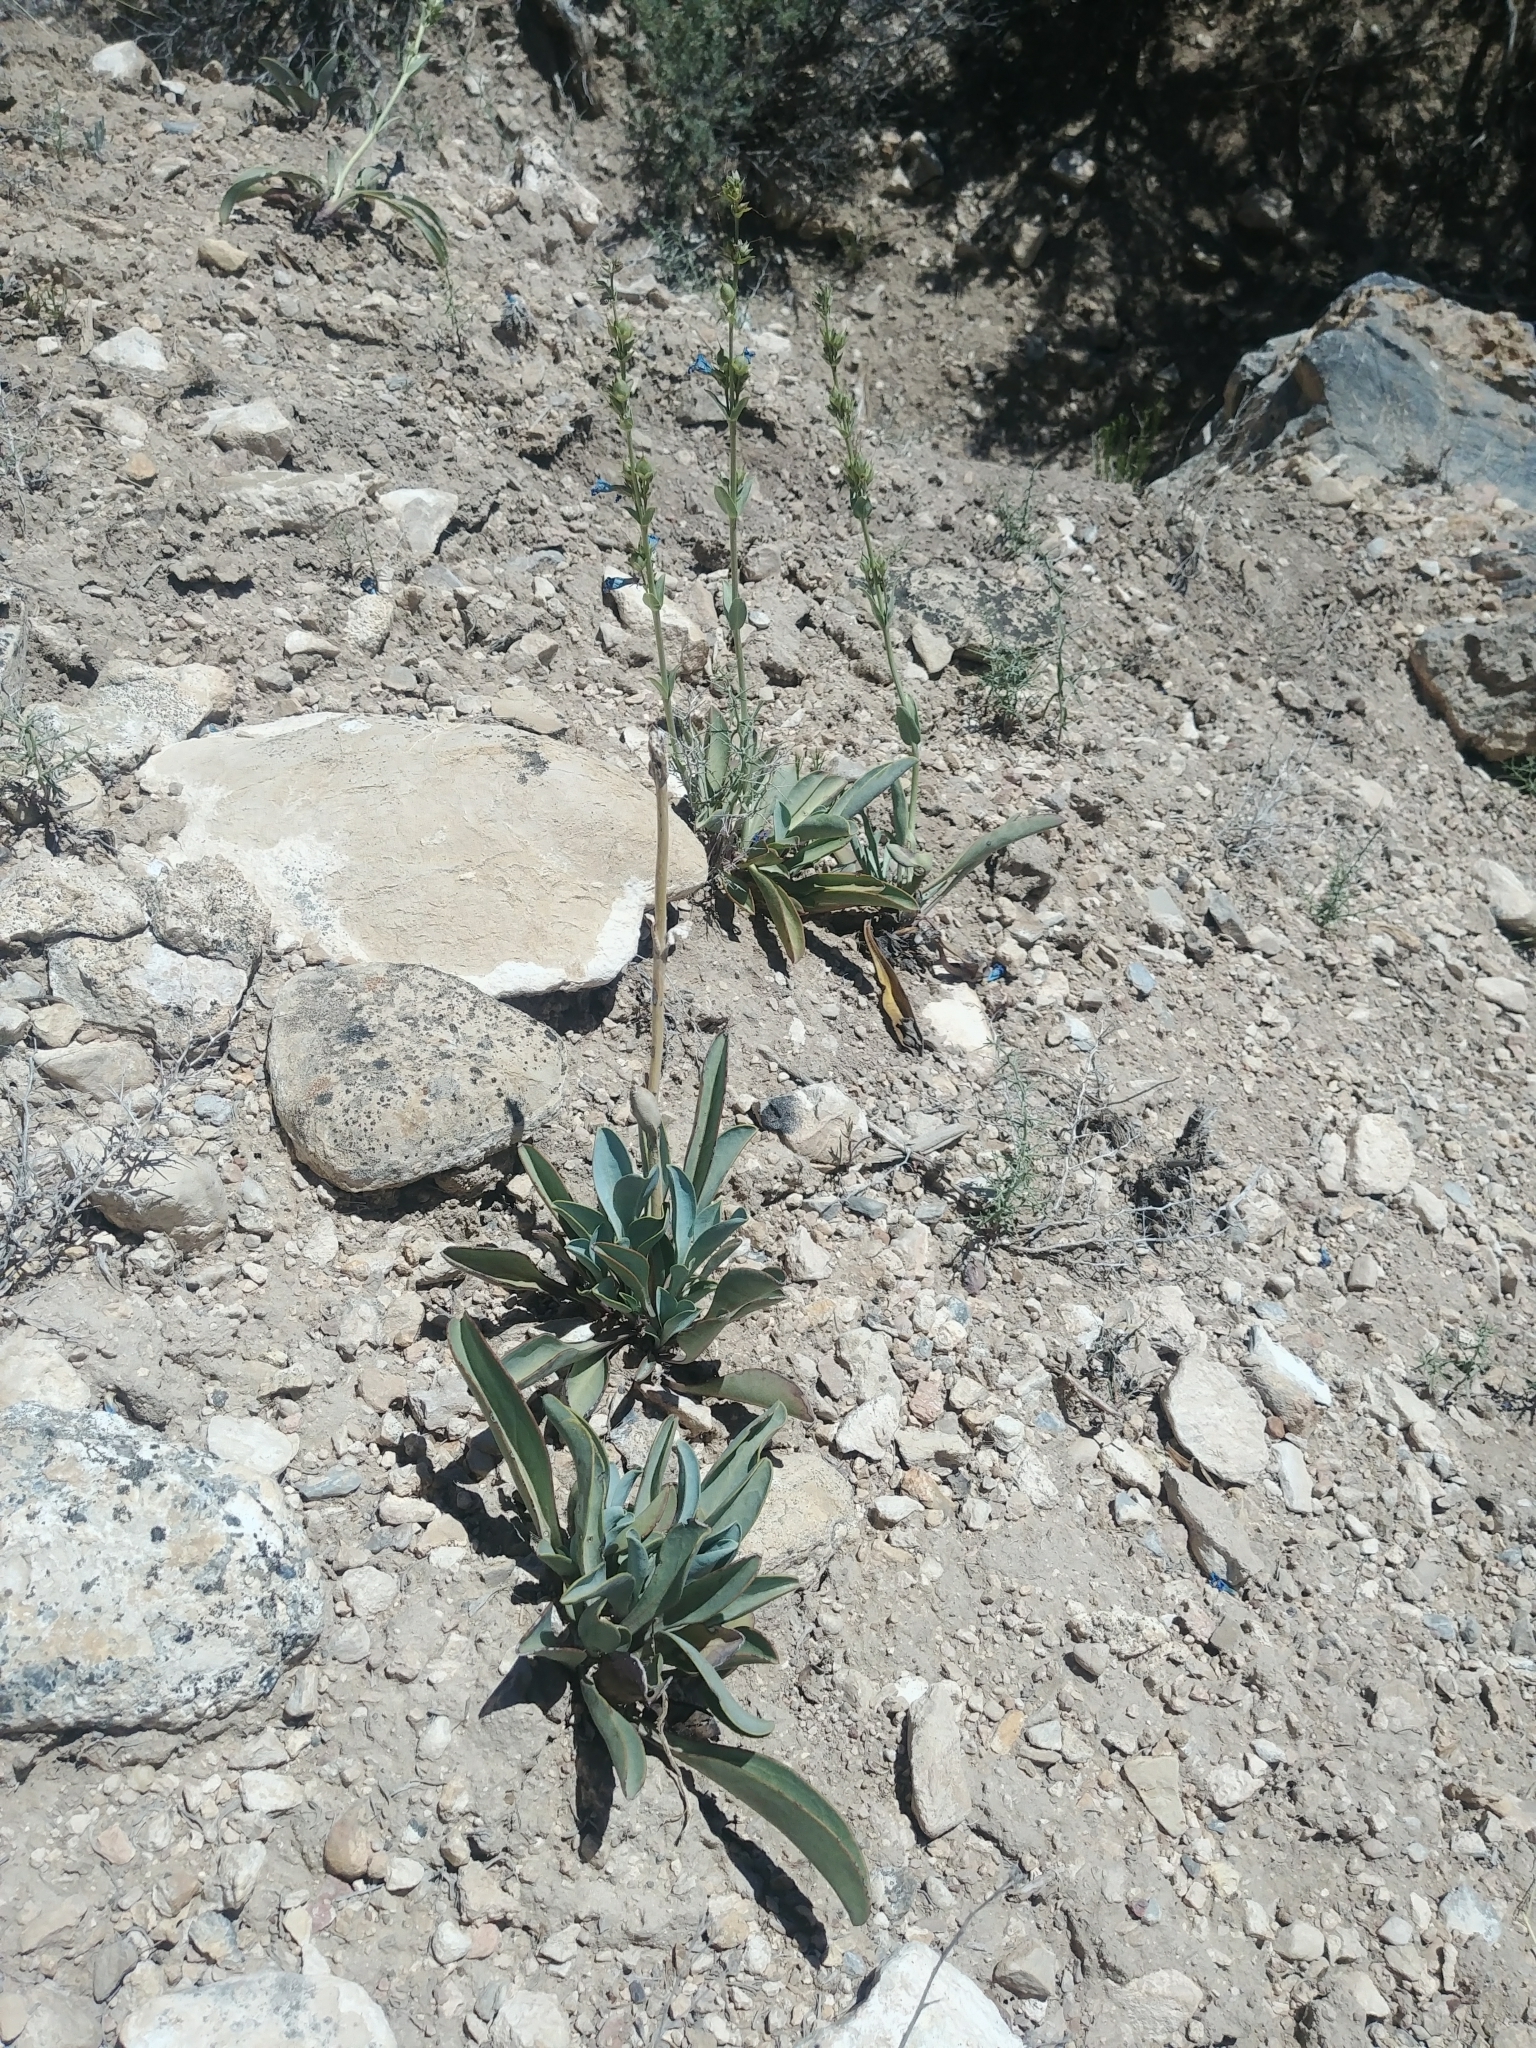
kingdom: Plantae
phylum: Tracheophyta
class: Magnoliopsida
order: Lamiales
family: Plantaginaceae
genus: Penstemon
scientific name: Penstemon pachyphyllus
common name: Thick-leaf penstemon
